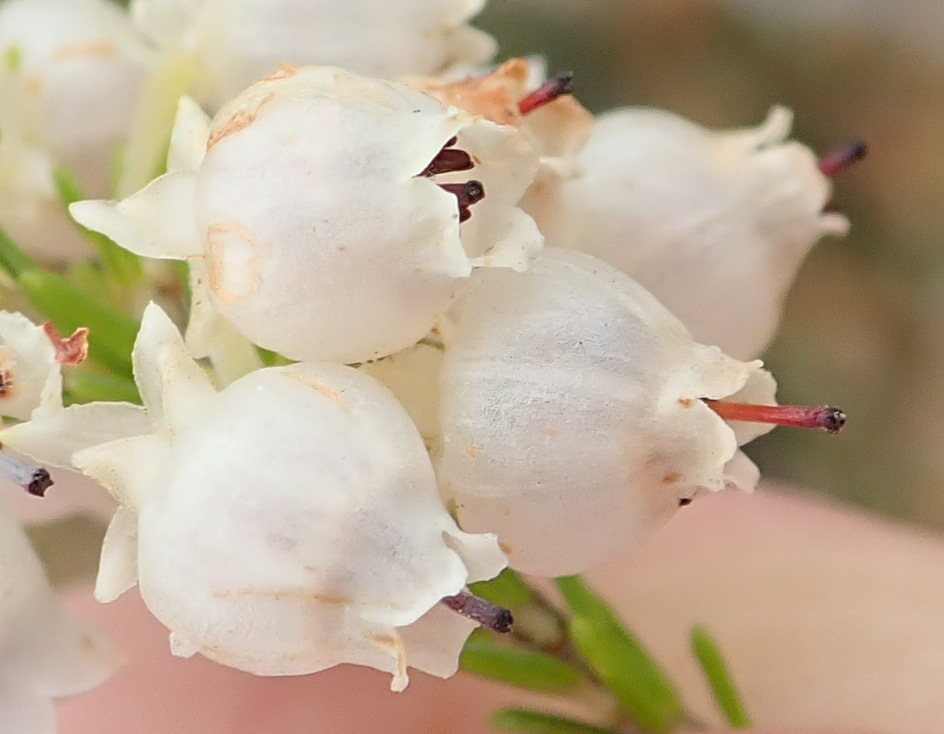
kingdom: Plantae
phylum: Tracheophyta
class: Magnoliopsida
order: Ericales
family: Ericaceae
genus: Erica
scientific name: Erica glomiflora
